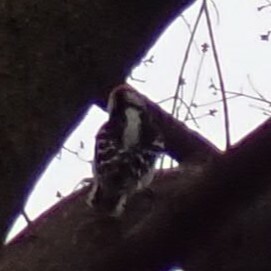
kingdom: Animalia
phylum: Chordata
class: Aves
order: Piciformes
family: Picidae
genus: Dryobates
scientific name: Dryobates pubescens
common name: Downy woodpecker
